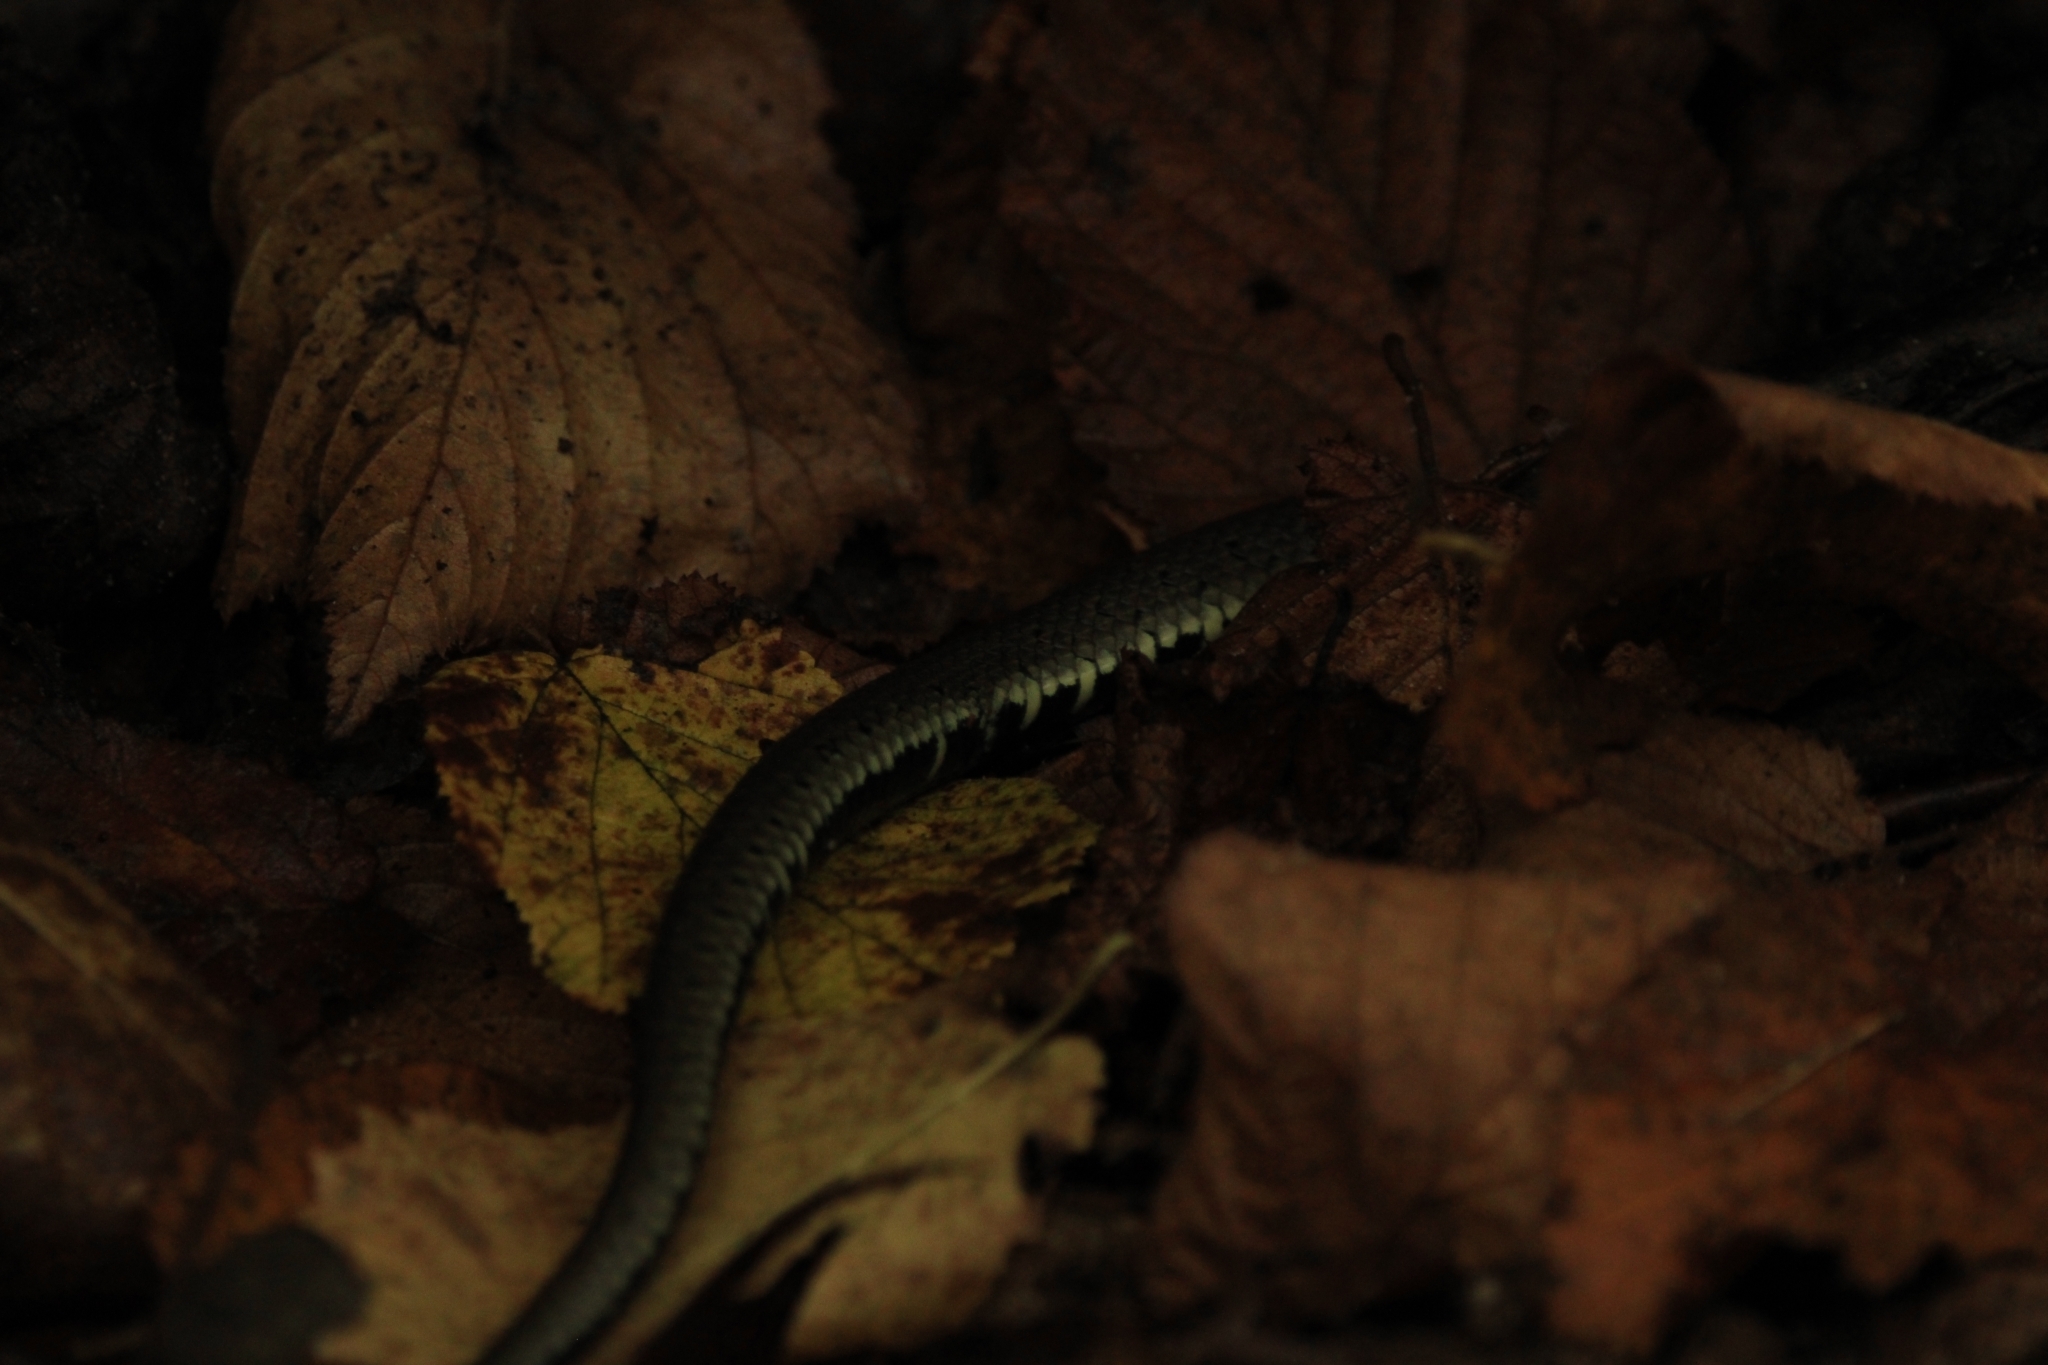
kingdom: Animalia
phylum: Chordata
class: Squamata
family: Colubridae
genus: Natrix
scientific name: Natrix natrix
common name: Grass snake
